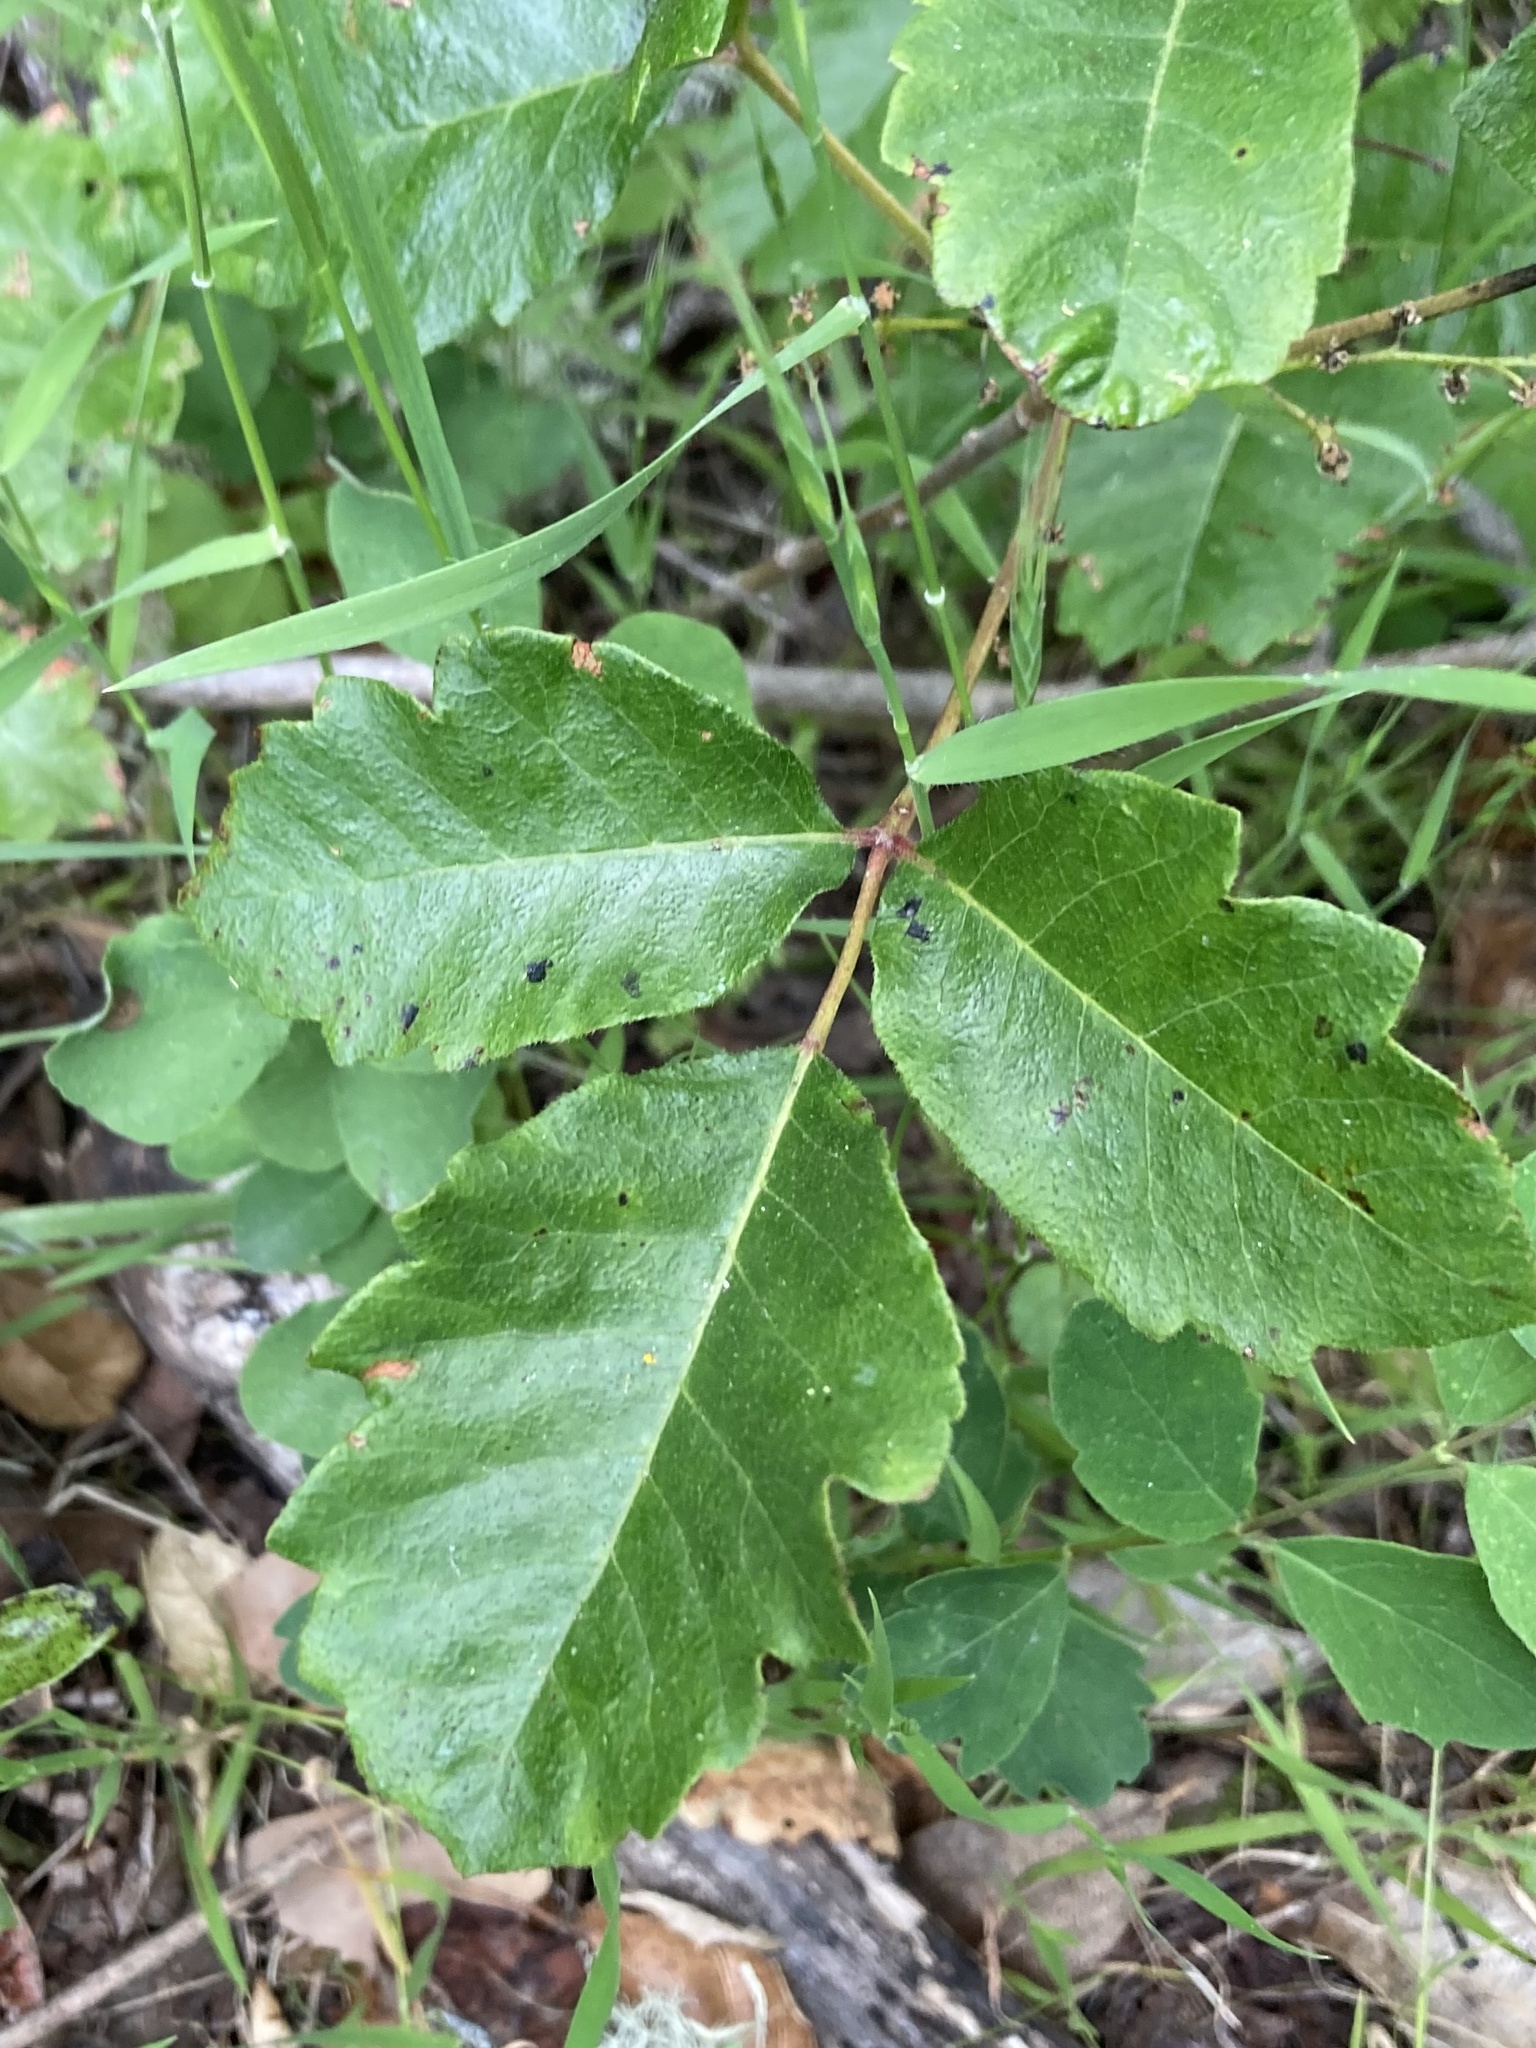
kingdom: Plantae
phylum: Tracheophyta
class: Magnoliopsida
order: Sapindales
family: Anacardiaceae
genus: Toxicodendron
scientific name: Toxicodendron diversilobum
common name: Pacific poison-oak
